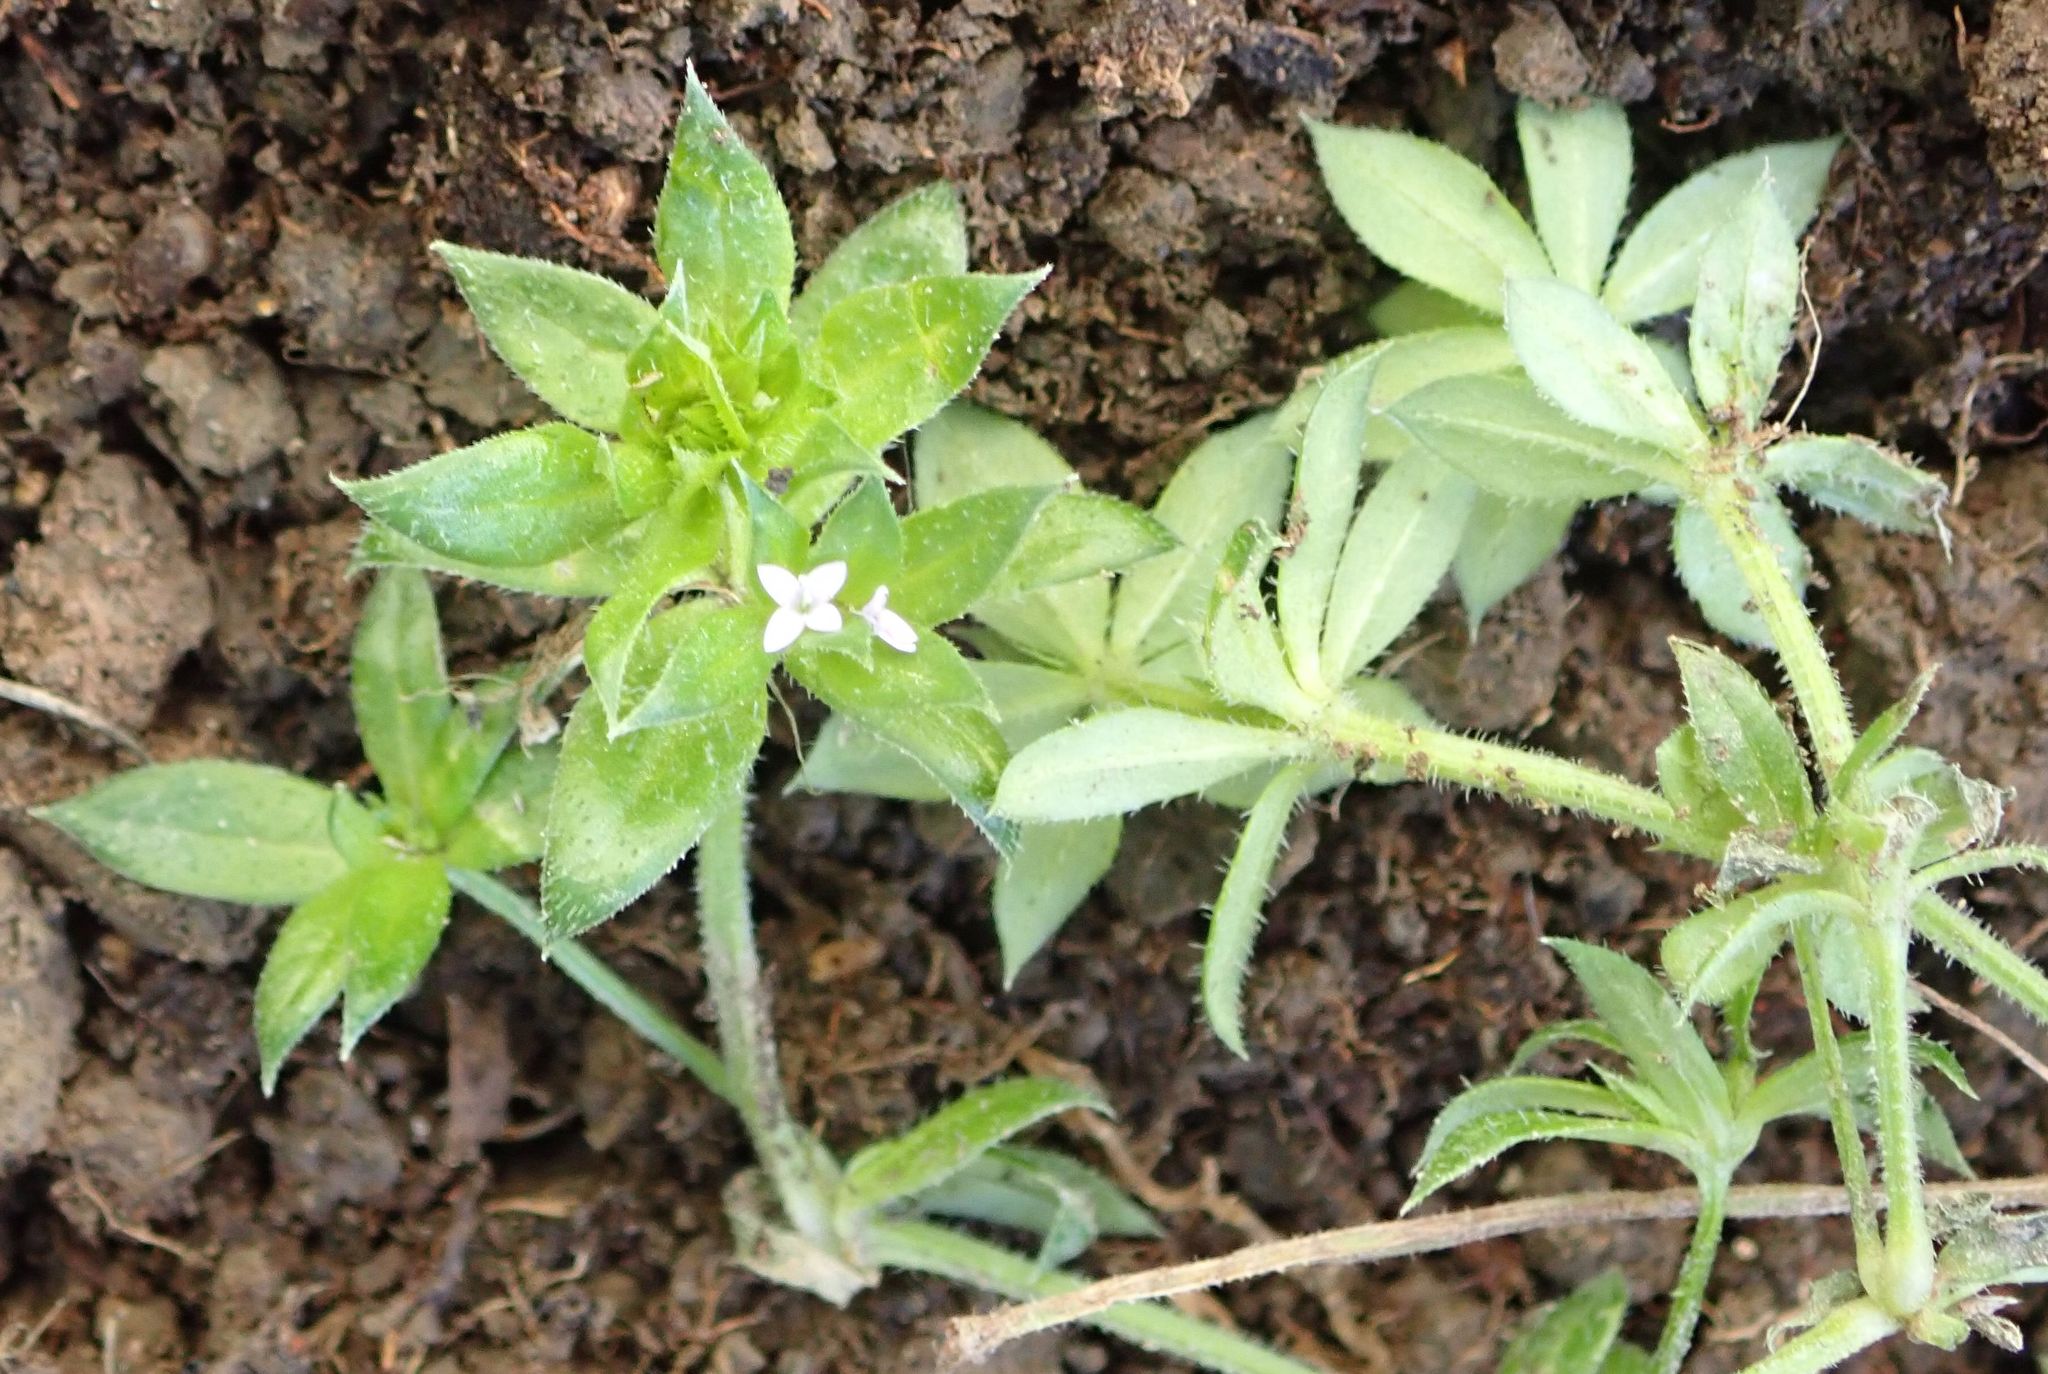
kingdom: Plantae
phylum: Tracheophyta
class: Magnoliopsida
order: Gentianales
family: Rubiaceae
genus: Sherardia
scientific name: Sherardia arvensis
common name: Field madder
